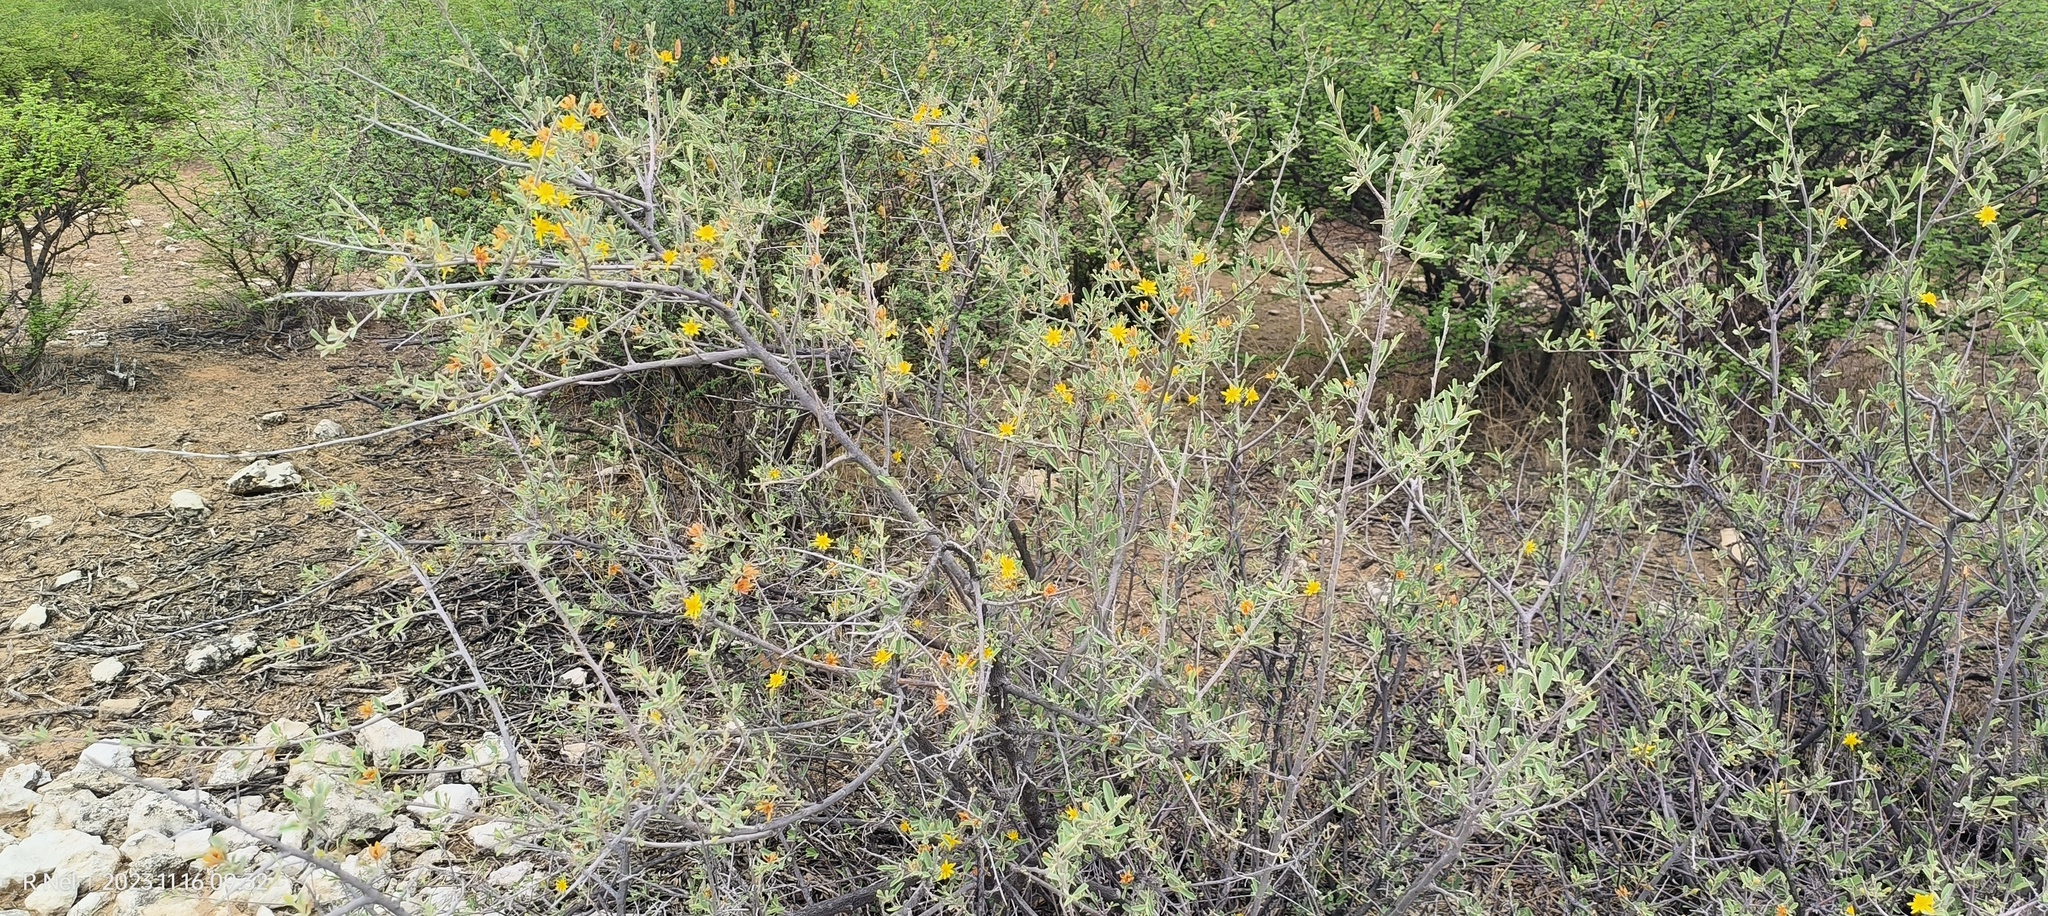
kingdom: Plantae
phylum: Tracheophyta
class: Magnoliopsida
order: Malvales
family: Malvaceae
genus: Grewia
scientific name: Grewia flava
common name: Brandy bush
